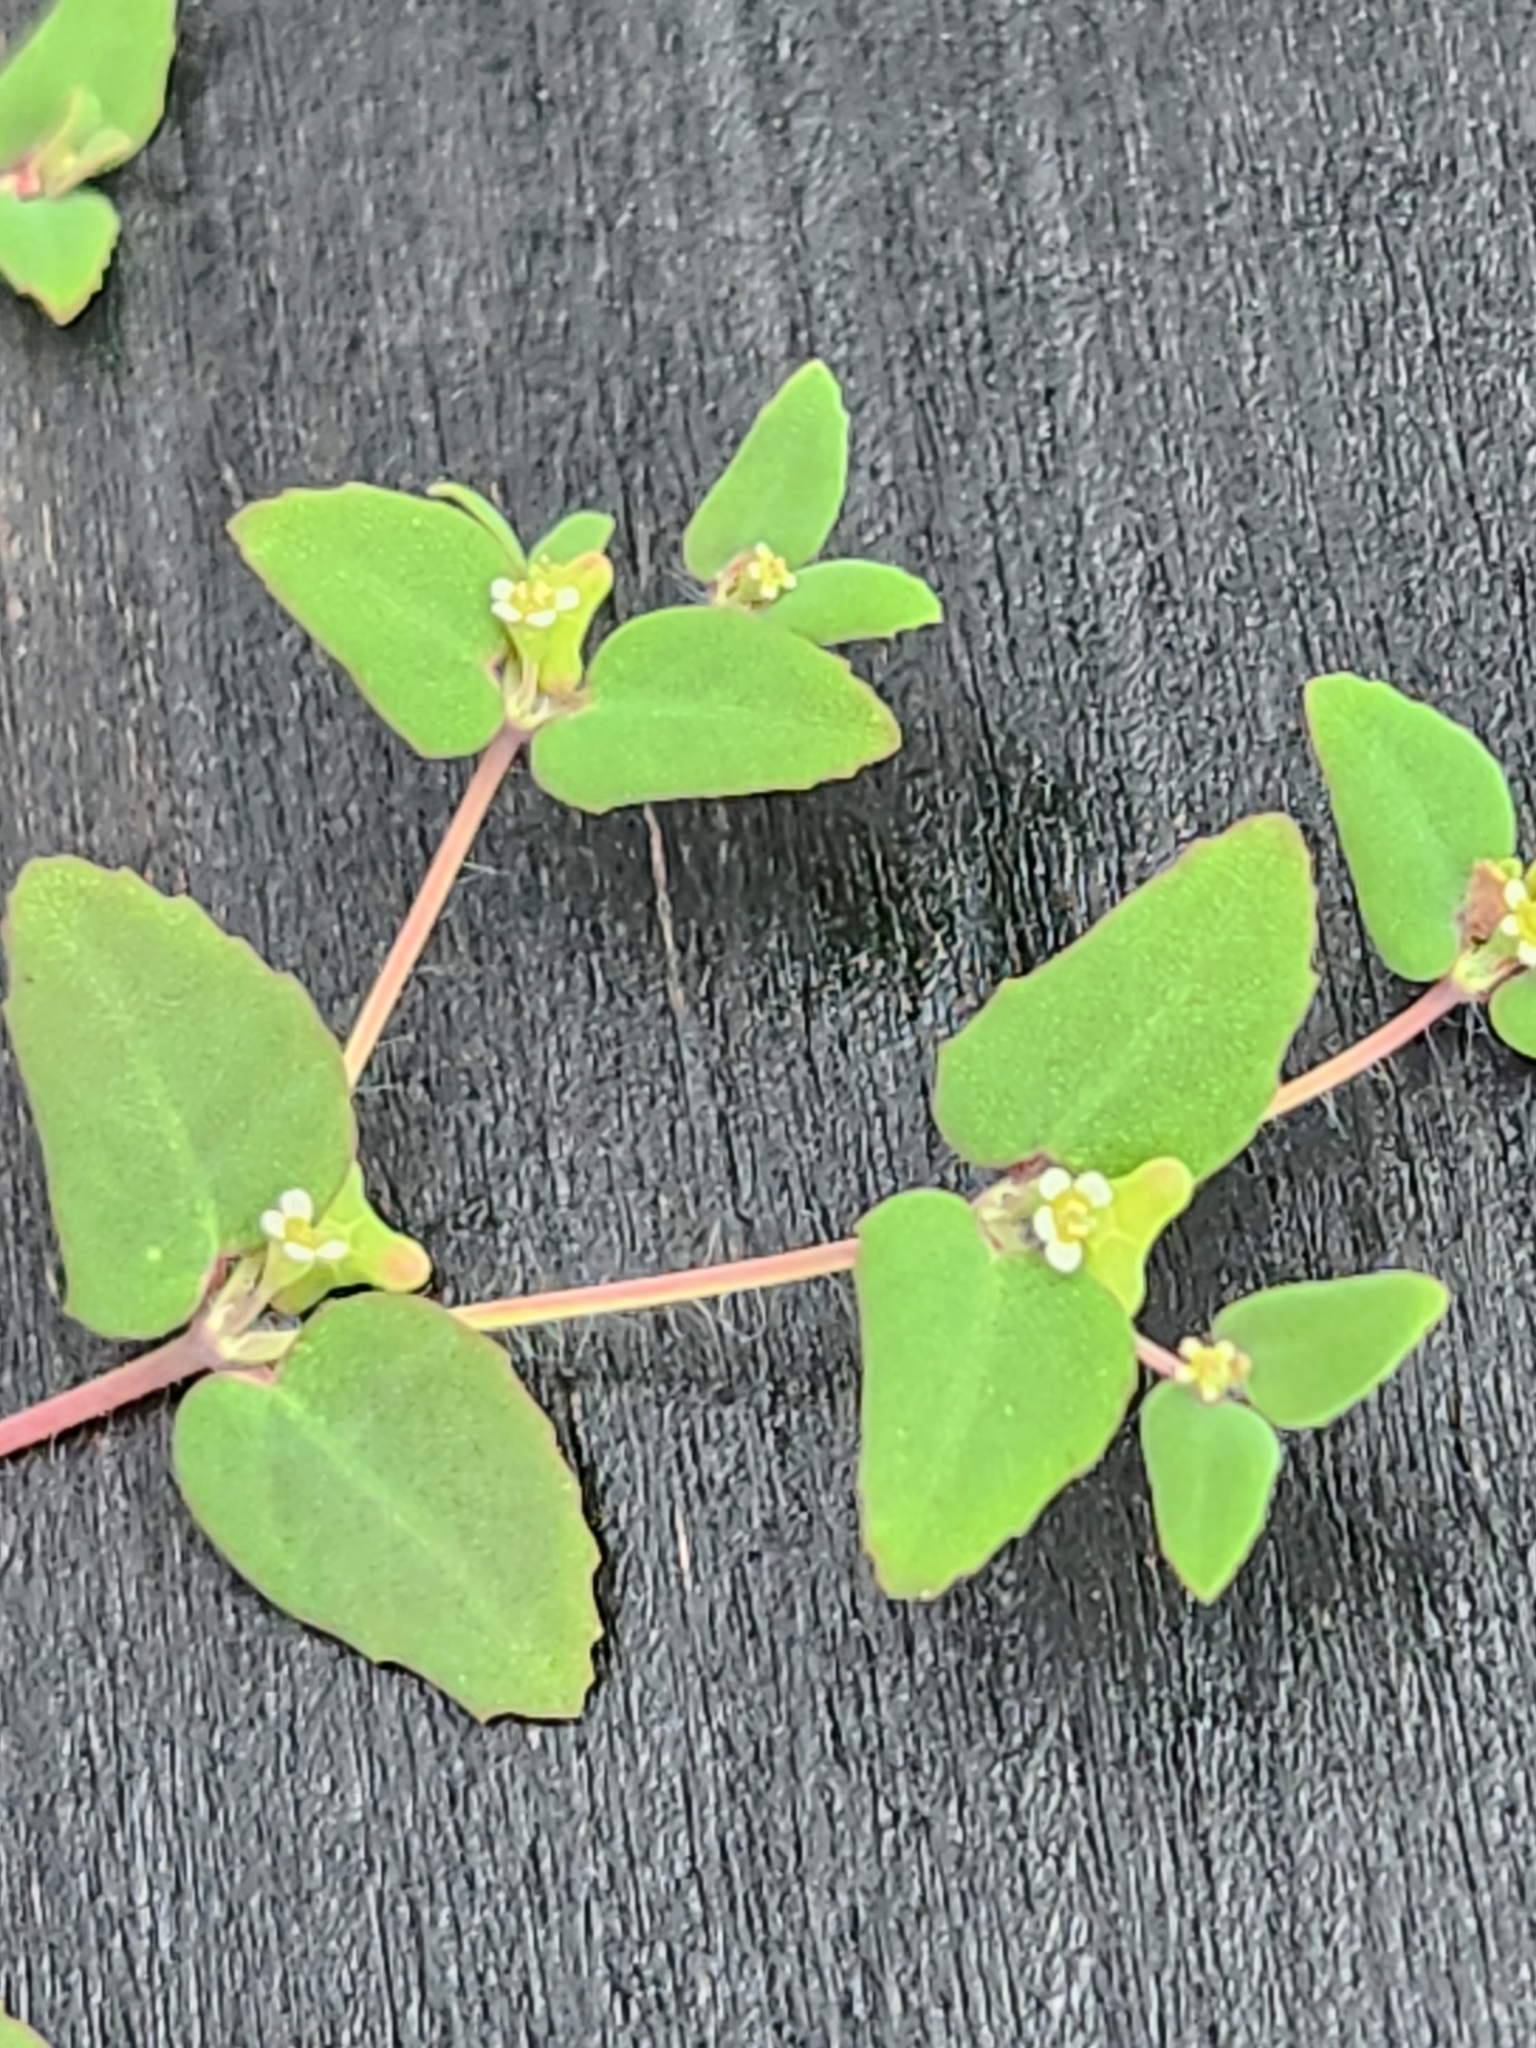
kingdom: Plantae
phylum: Tracheophyta
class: Magnoliopsida
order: Malpighiales
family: Euphorbiaceae
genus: Euphorbia
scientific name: Euphorbia villifera
